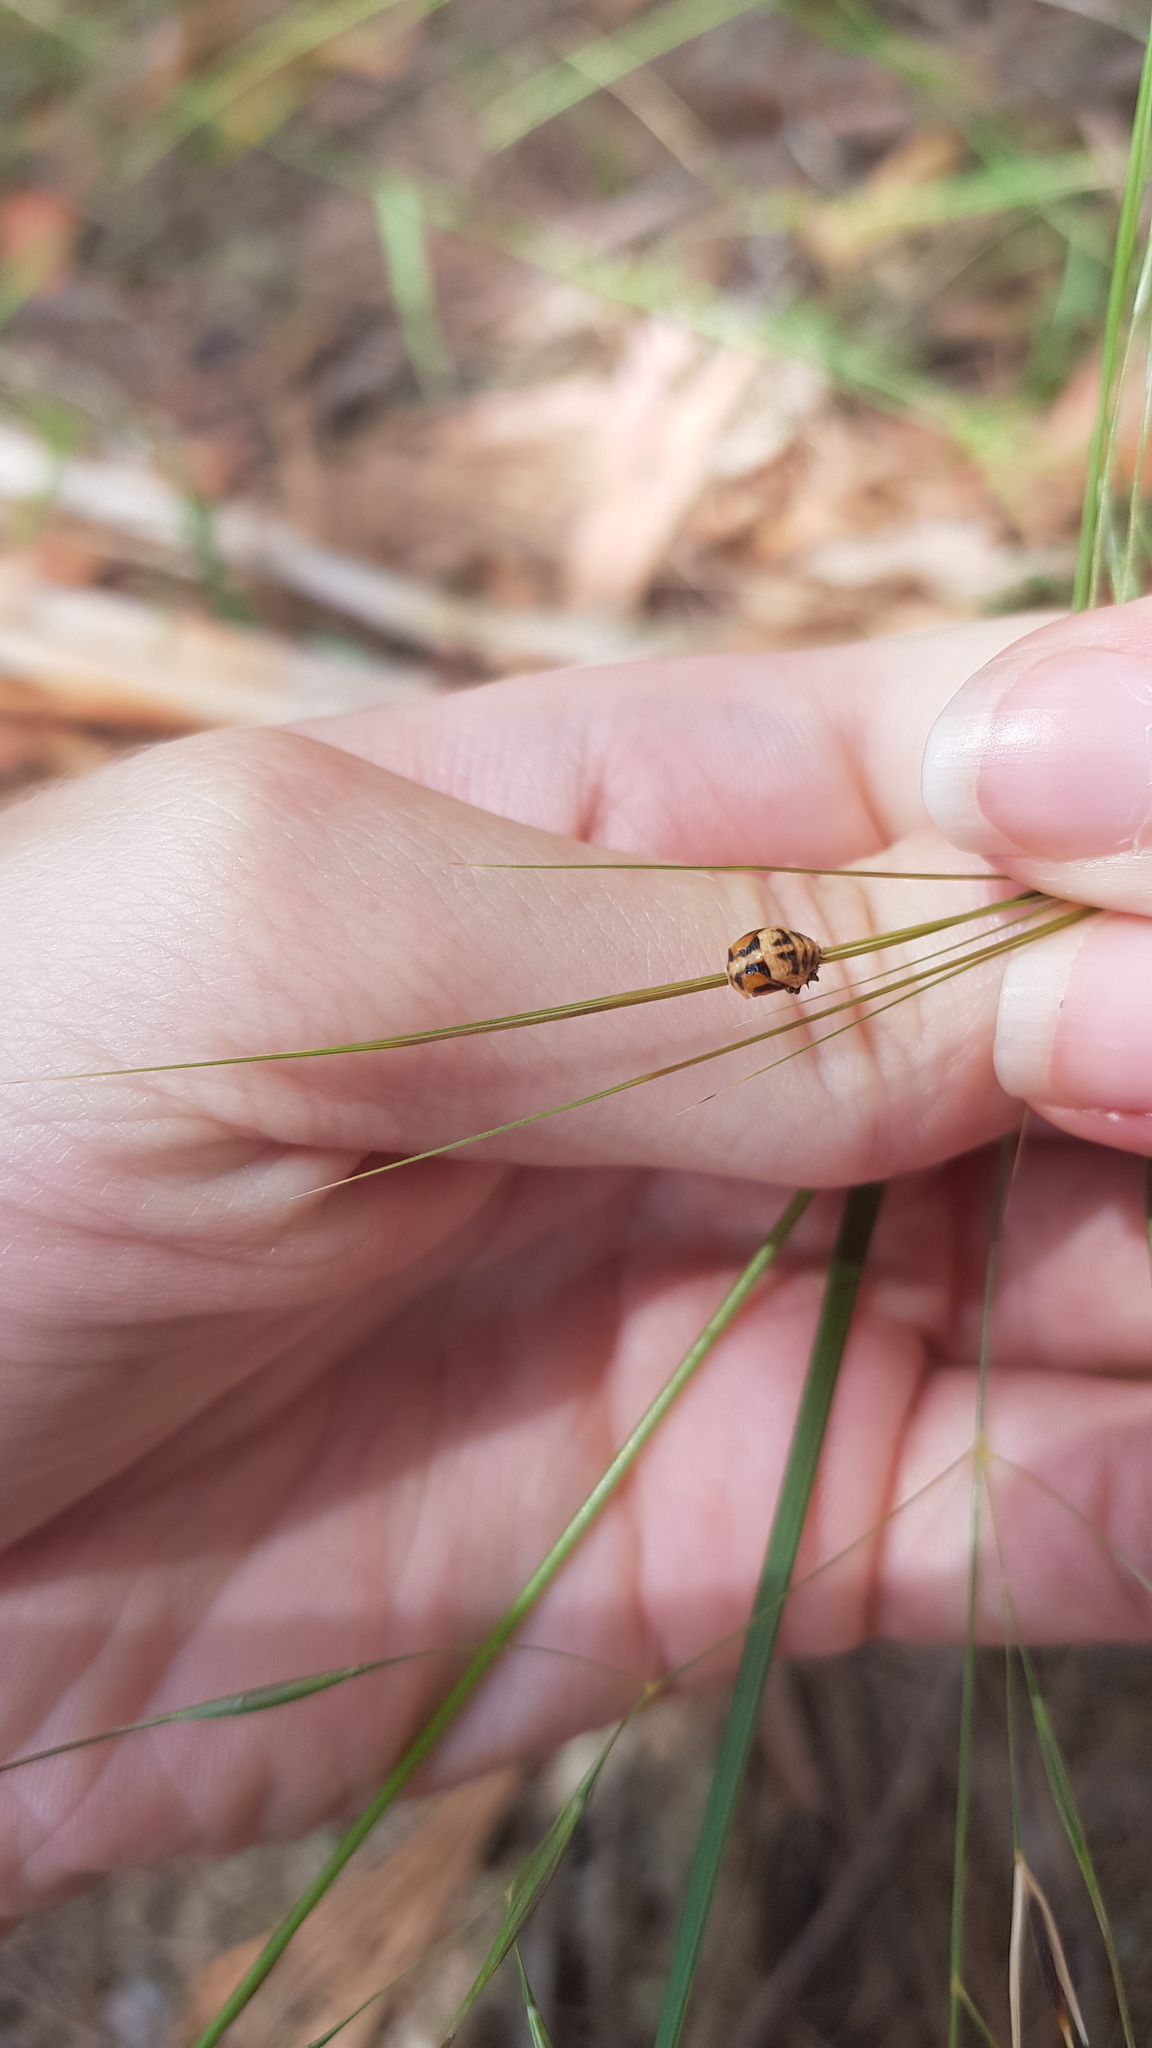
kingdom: Animalia
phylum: Arthropoda
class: Insecta
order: Coleoptera
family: Coccinellidae
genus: Harmonia
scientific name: Harmonia
